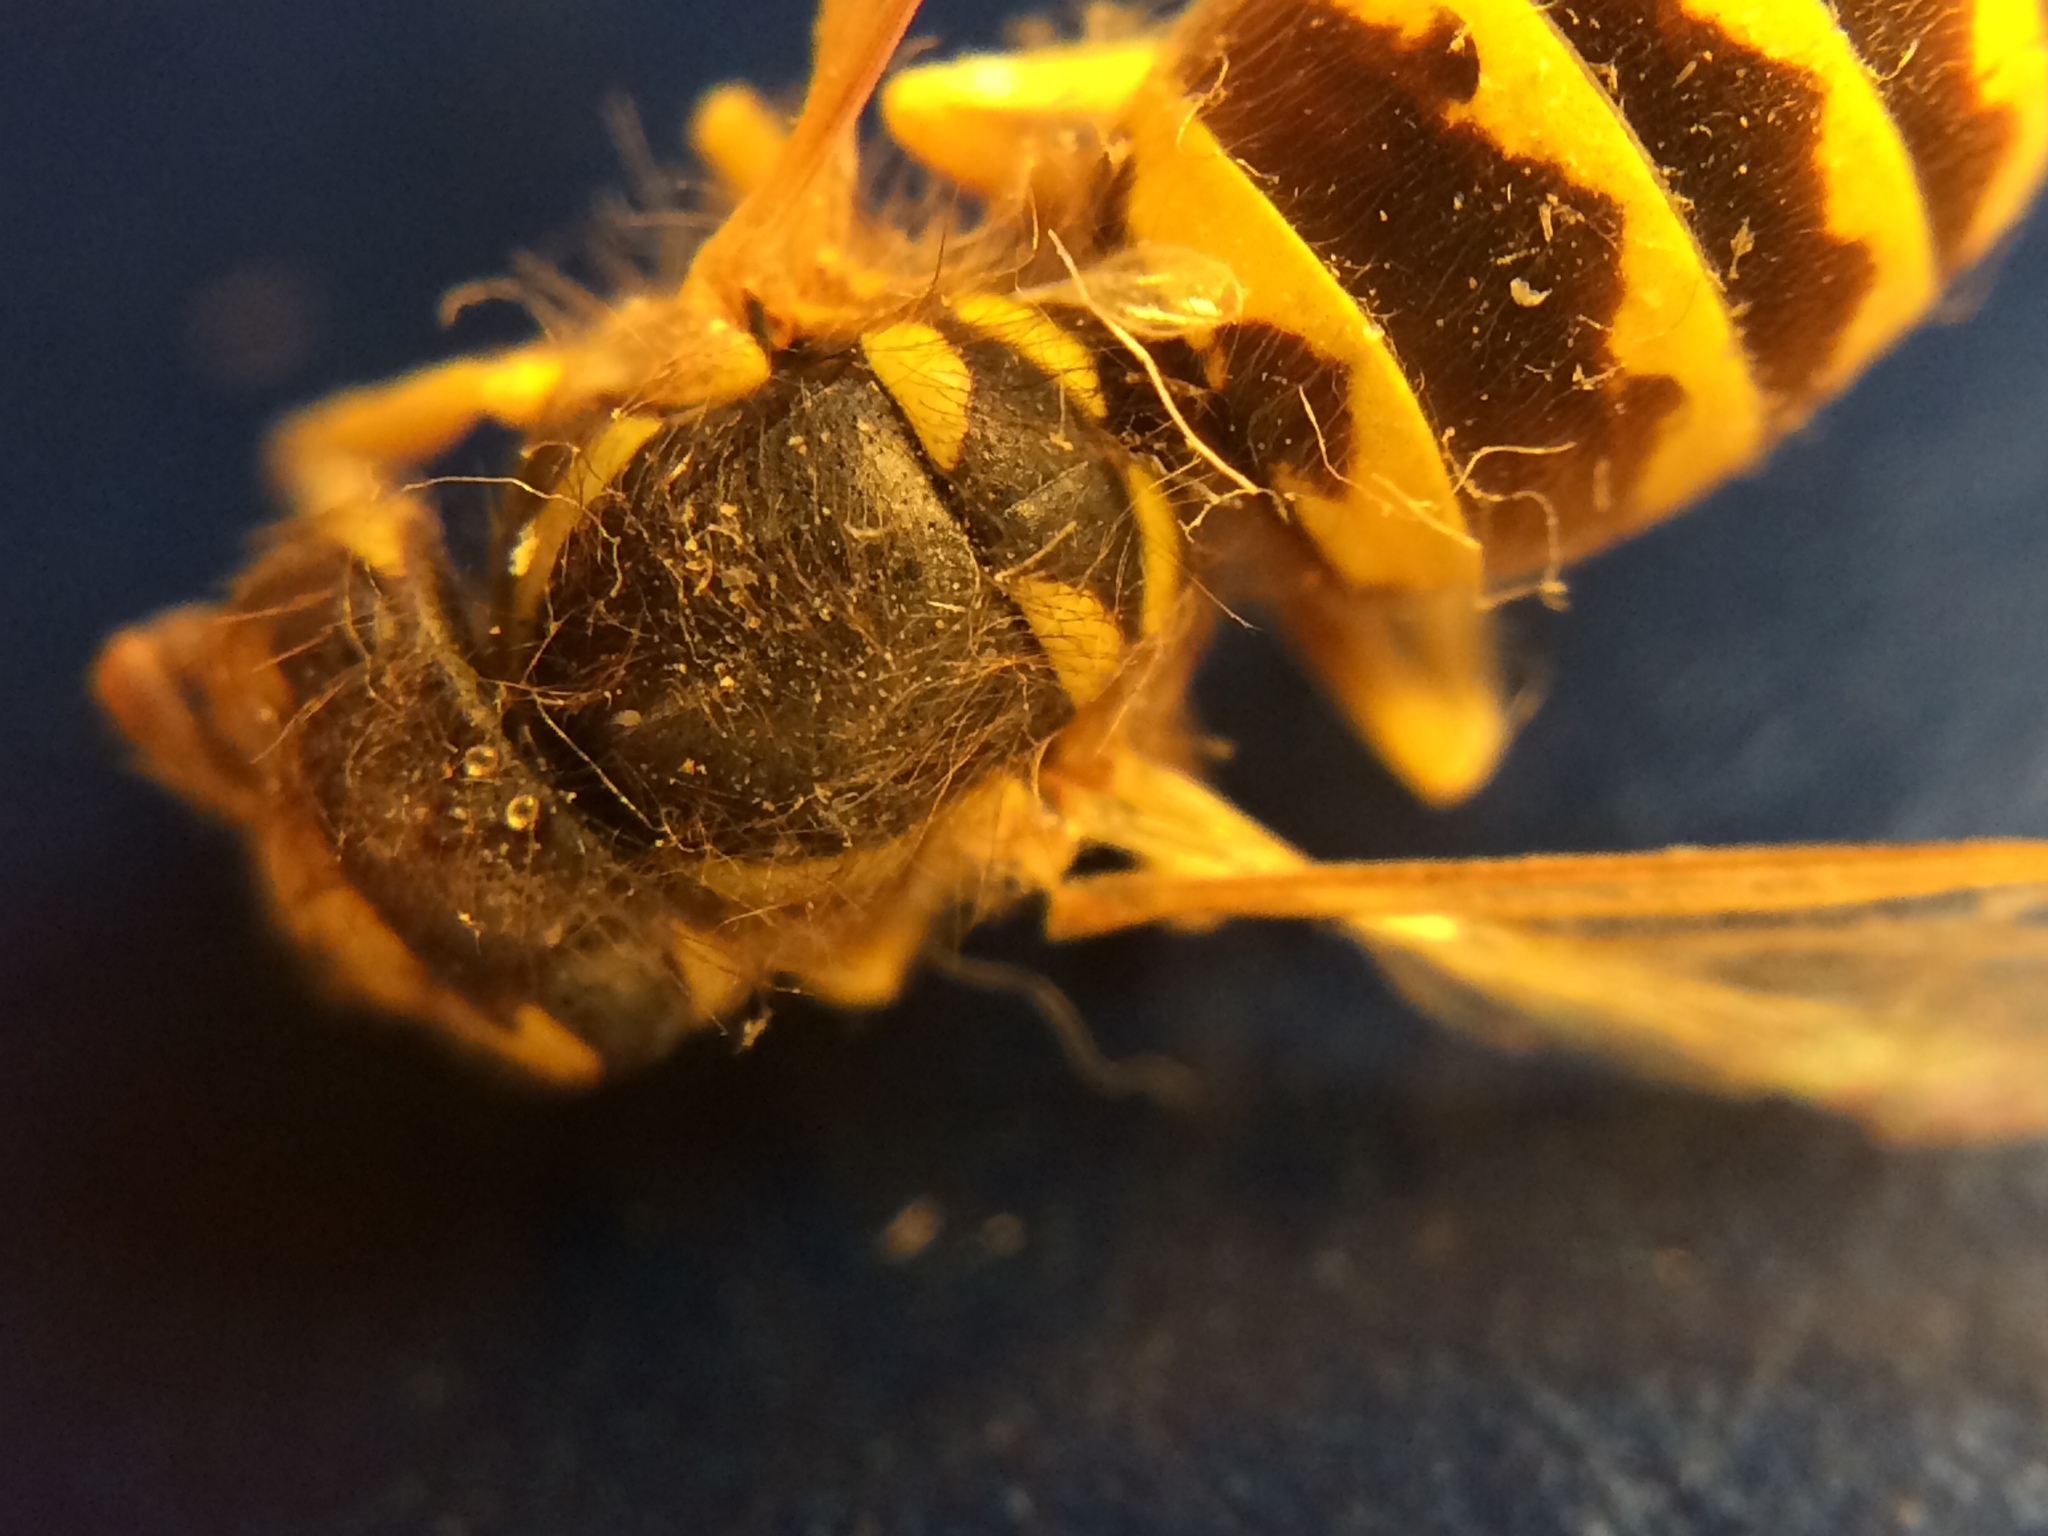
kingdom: Animalia
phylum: Arthropoda
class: Insecta
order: Hymenoptera
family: Vespidae
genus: Vespula
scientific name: Vespula alascensis
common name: Alaska yellowjacket
